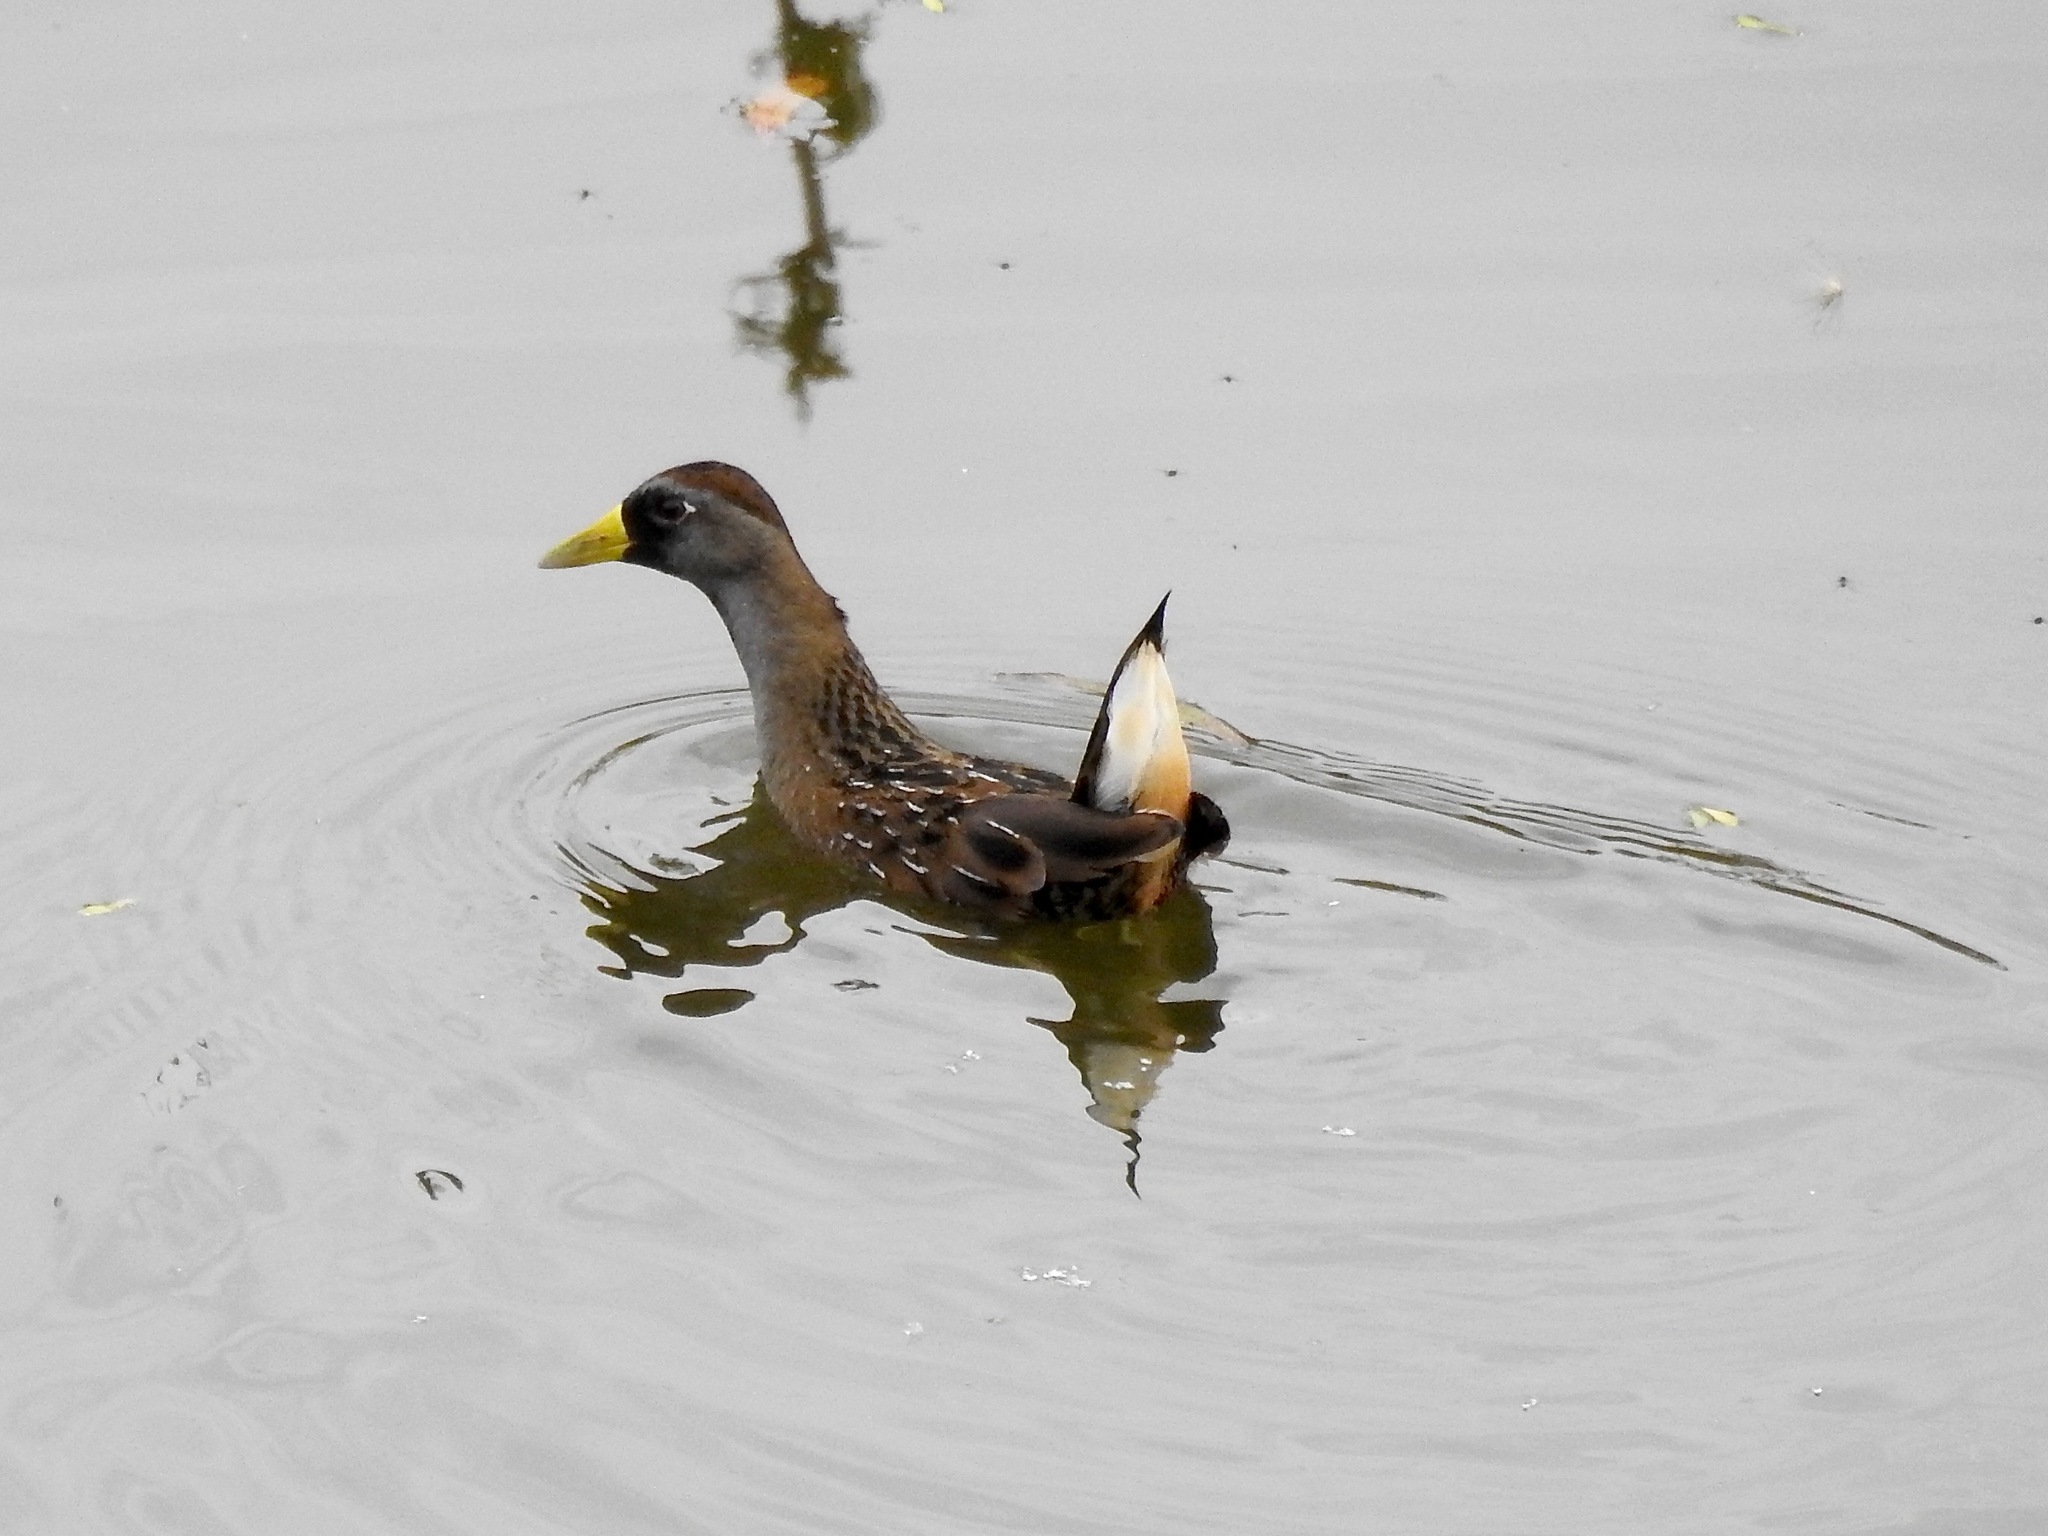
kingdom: Animalia
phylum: Chordata
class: Aves
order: Gruiformes
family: Rallidae
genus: Porzana
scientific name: Porzana carolina
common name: Sora
